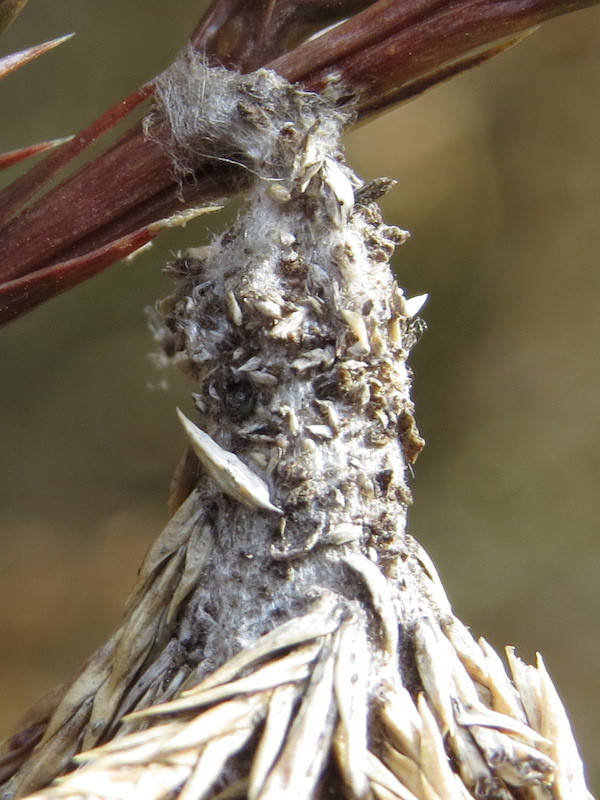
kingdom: Animalia
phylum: Arthropoda
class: Insecta
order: Lepidoptera
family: Psychidae
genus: Thyridopteryx
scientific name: Thyridopteryx ephemeraeformis
